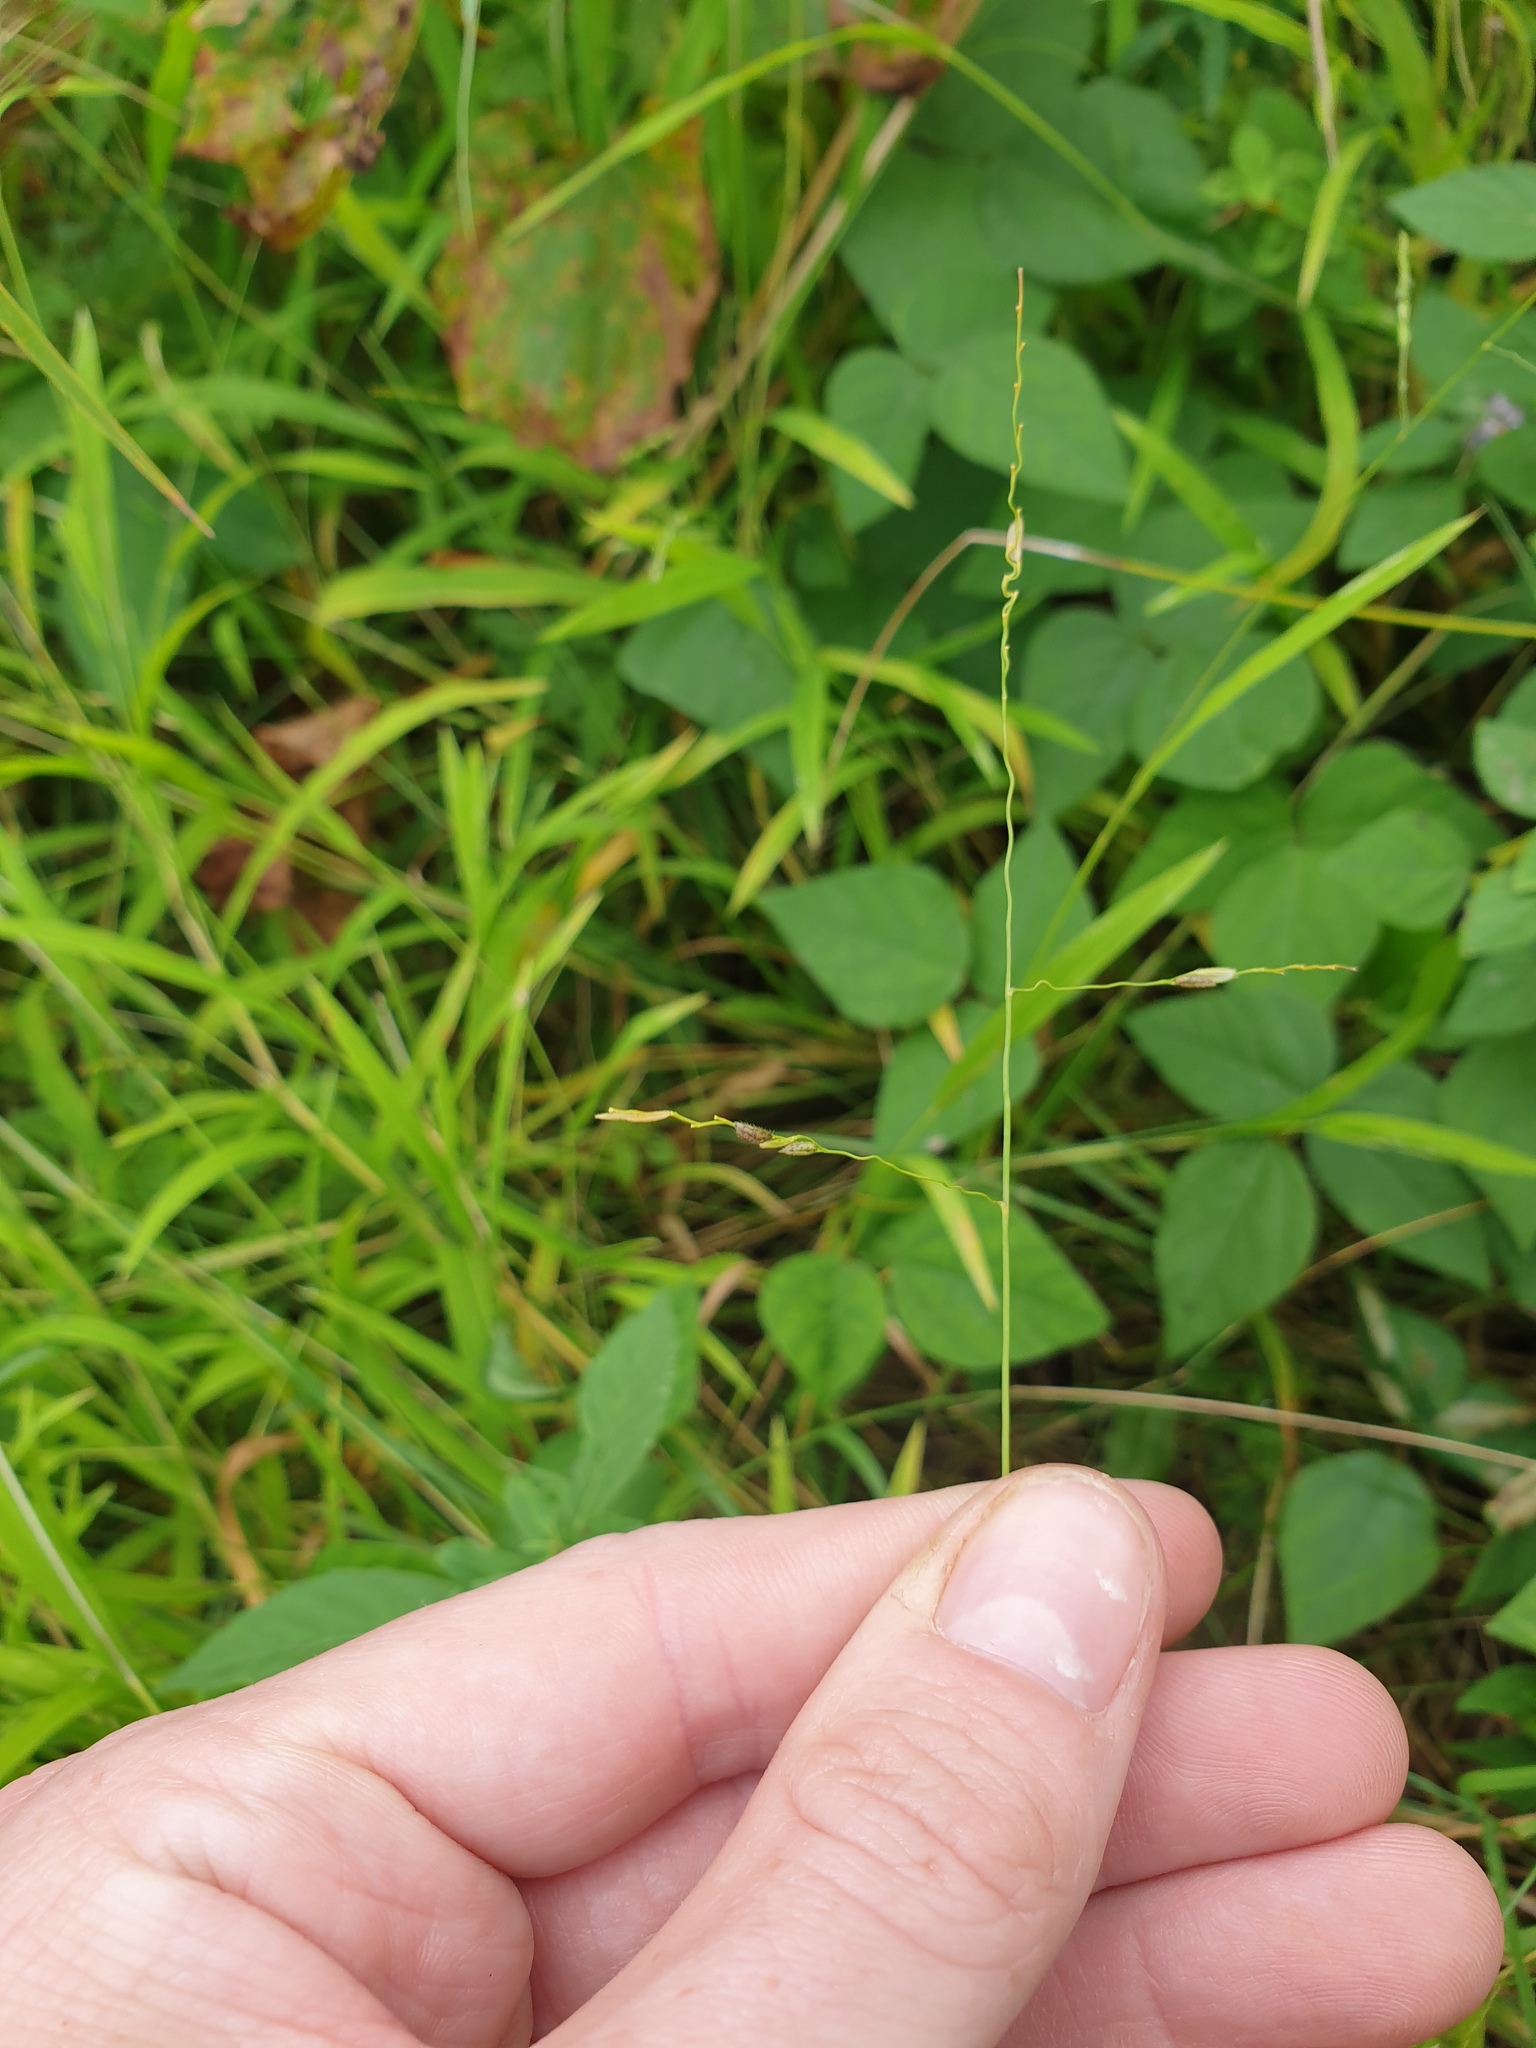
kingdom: Plantae
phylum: Tracheophyta
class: Liliopsida
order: Poales
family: Poaceae
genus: Leersia
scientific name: Leersia virginica
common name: White cutgrass
